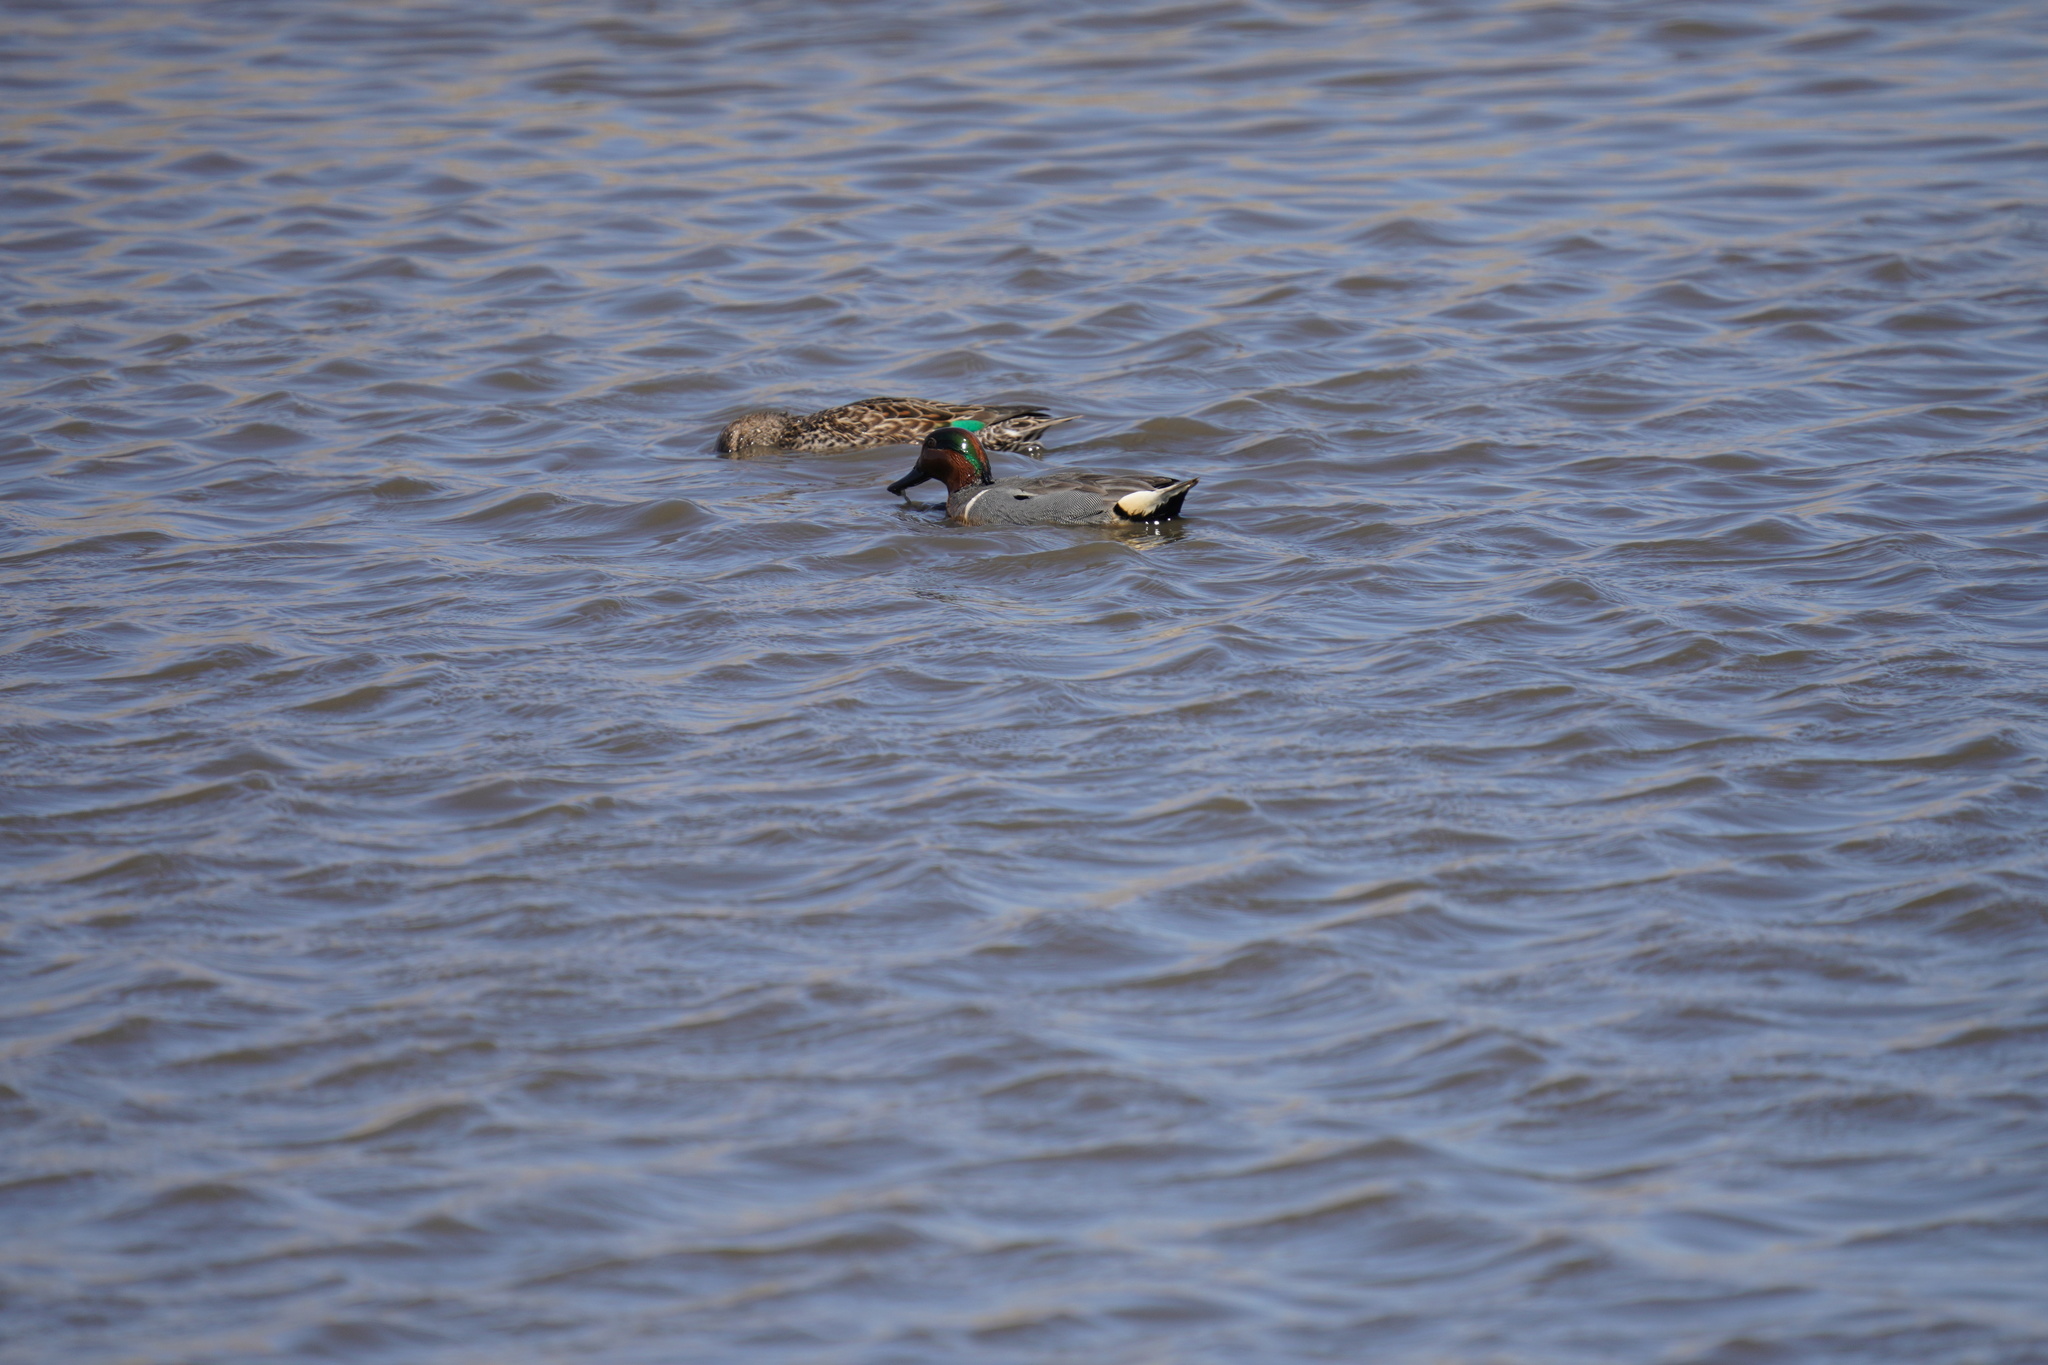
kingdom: Animalia
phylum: Chordata
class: Aves
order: Anseriformes
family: Anatidae
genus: Anas
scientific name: Anas crecca
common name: Eurasian teal
